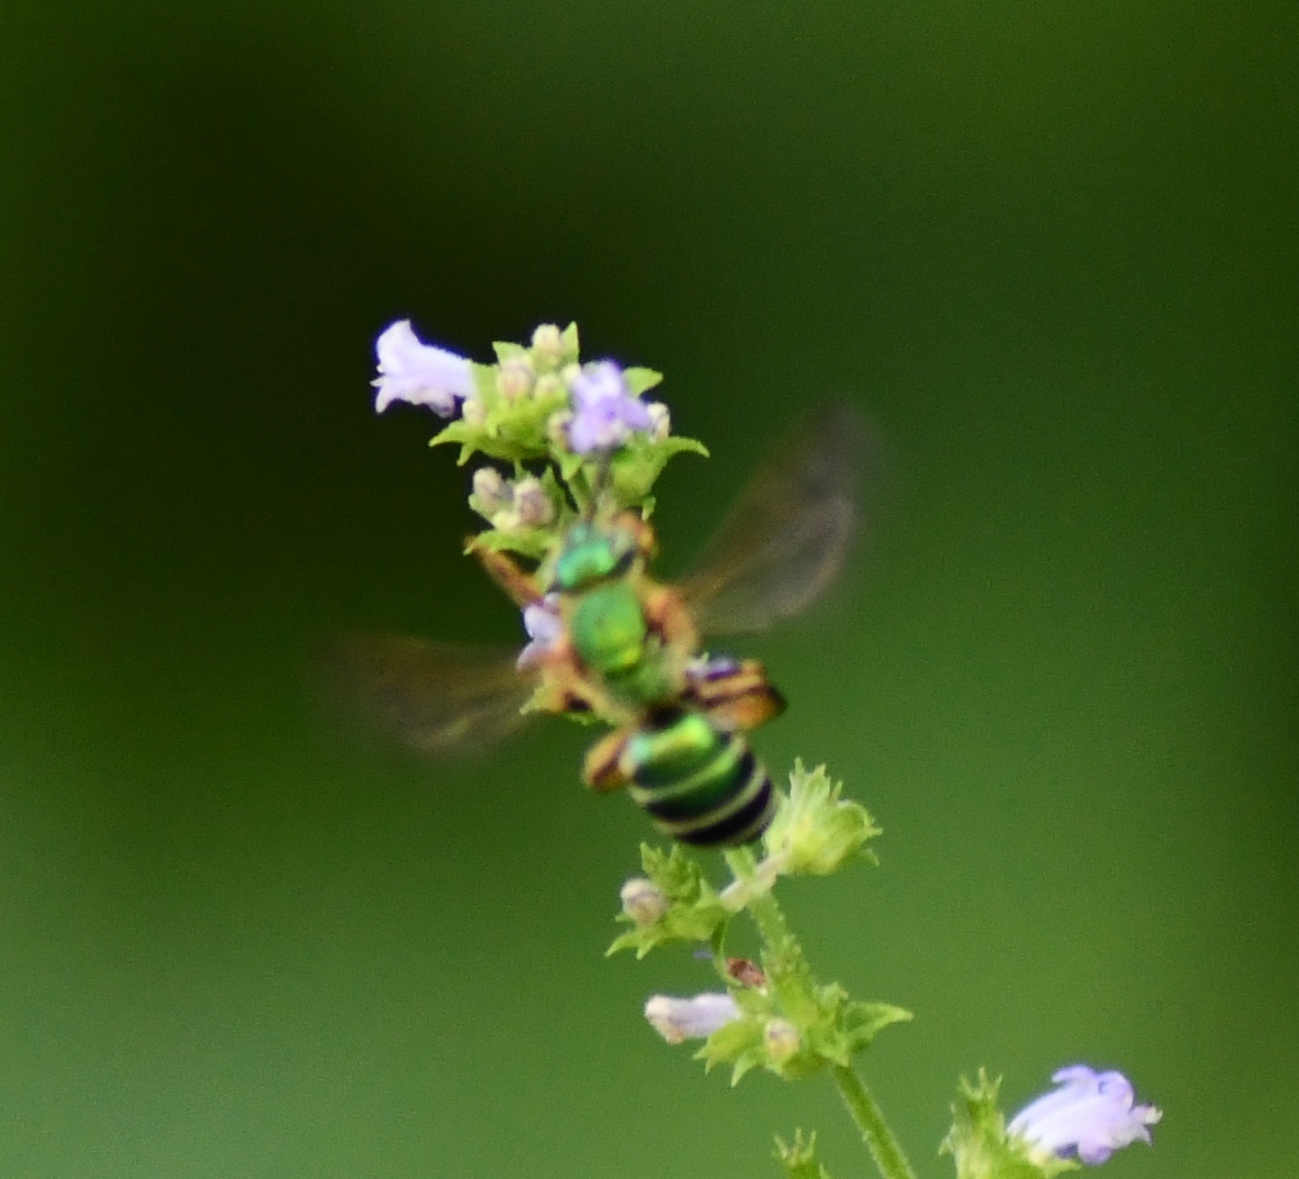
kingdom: Animalia
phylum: Arthropoda
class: Insecta
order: Hymenoptera
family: Halictidae
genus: Agapostemon
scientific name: Agapostemon splendens
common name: Brown-winged striped sweat bee
